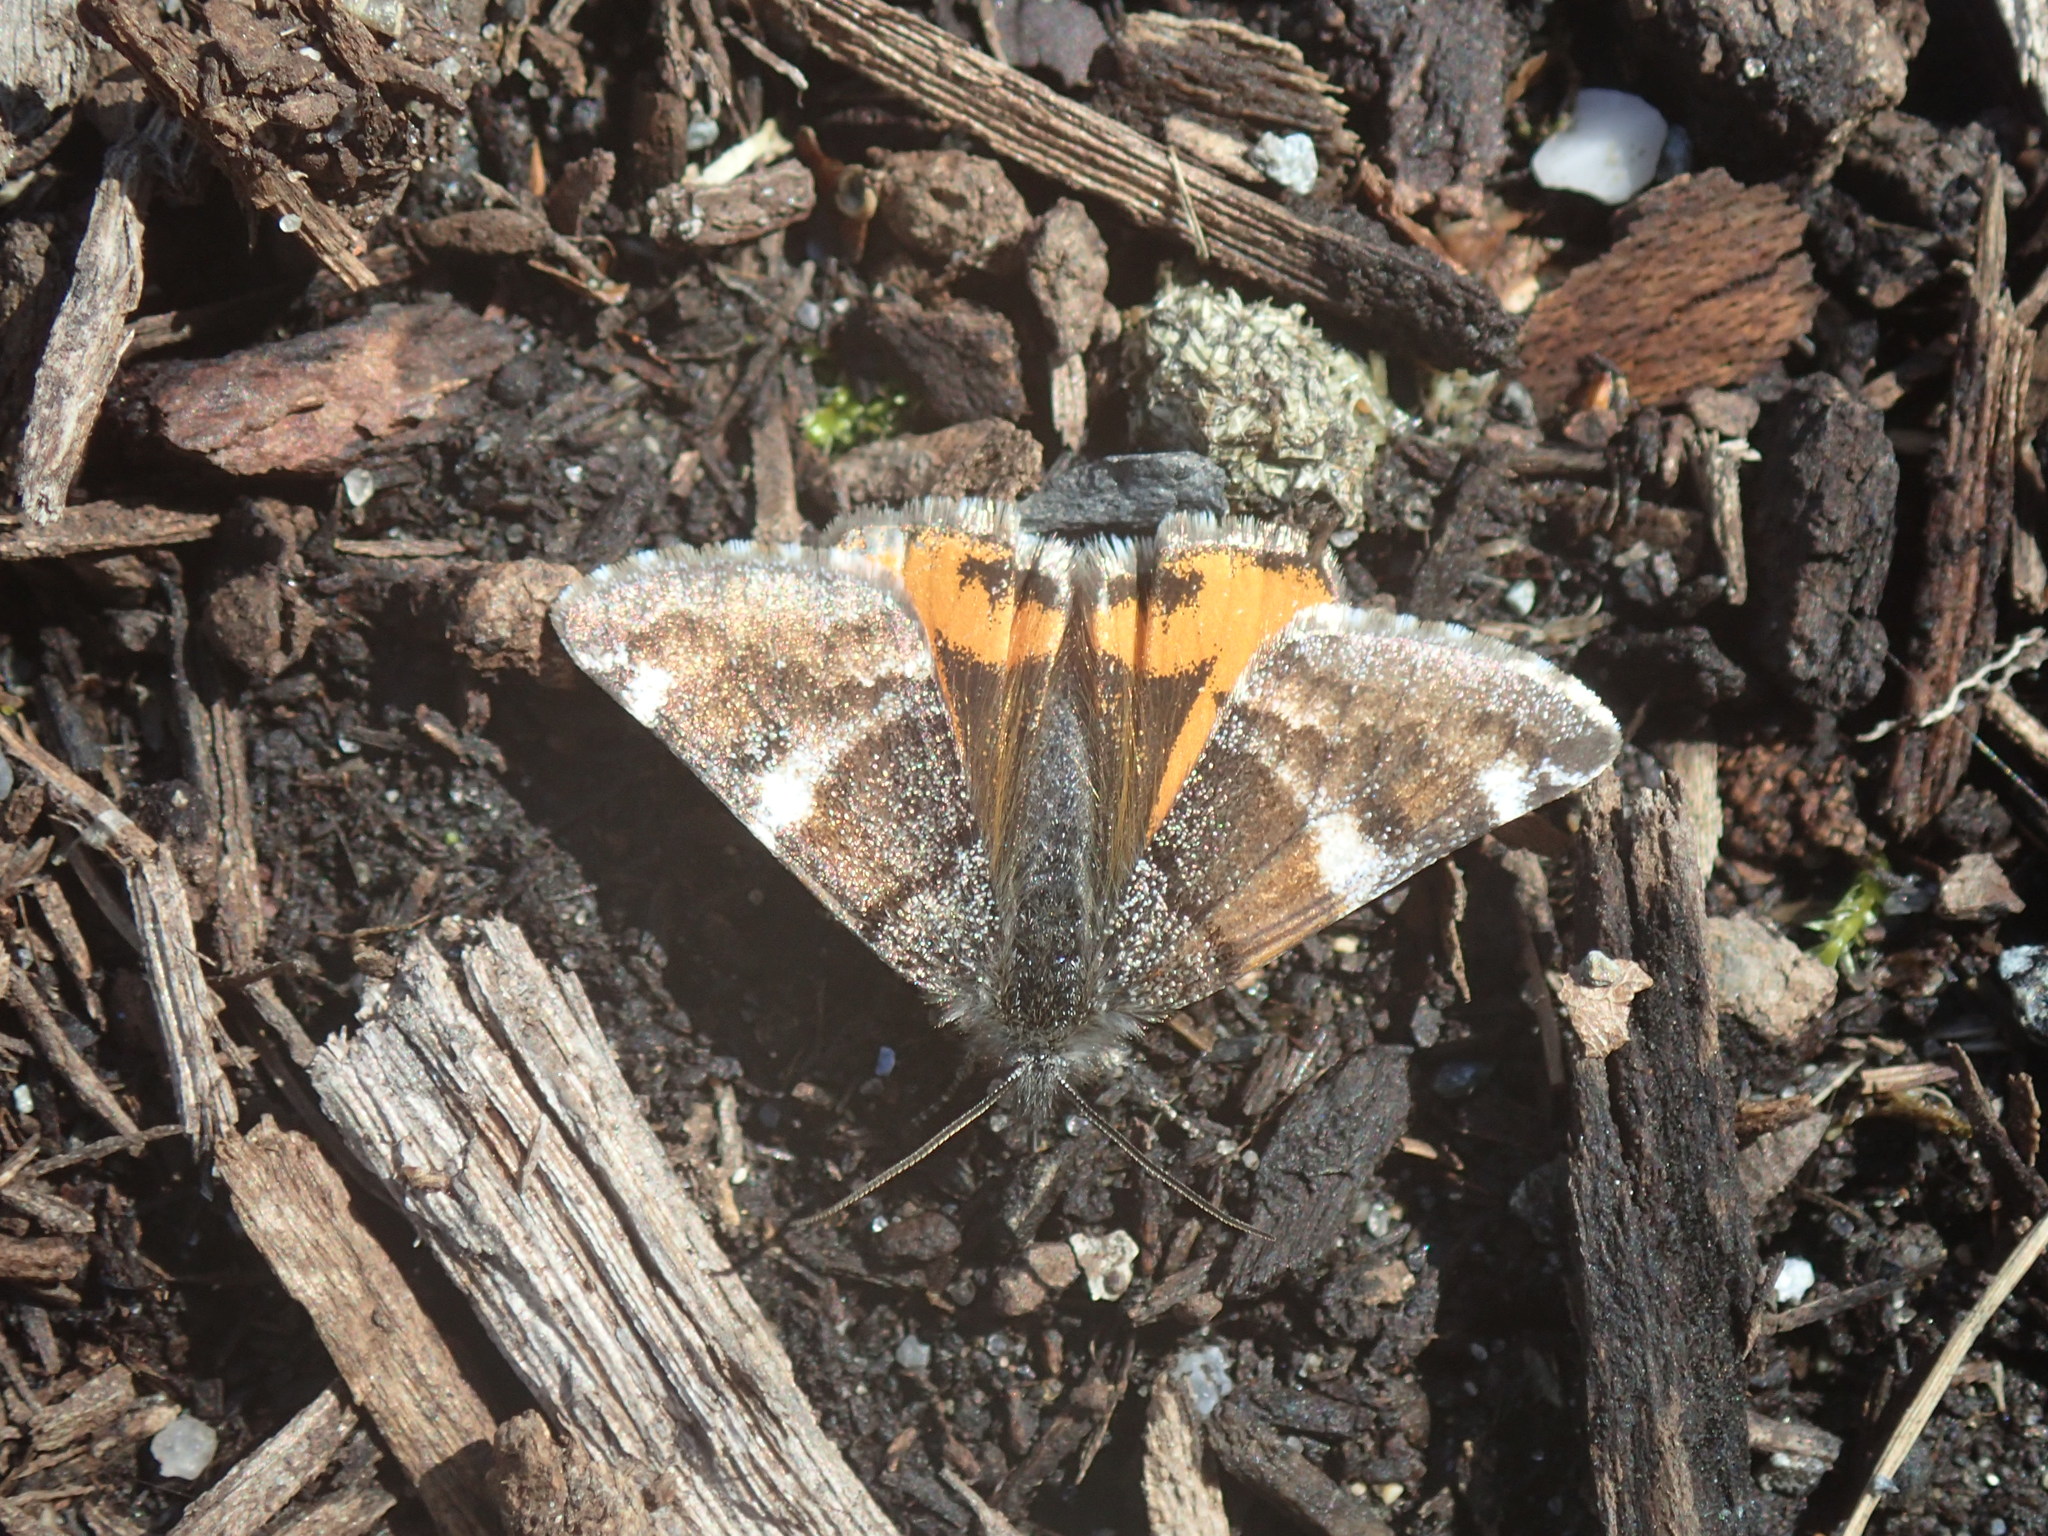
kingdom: Animalia
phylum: Arthropoda
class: Insecta
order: Lepidoptera
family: Geometridae
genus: Archiearis
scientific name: Archiearis infans
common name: First born geometer
